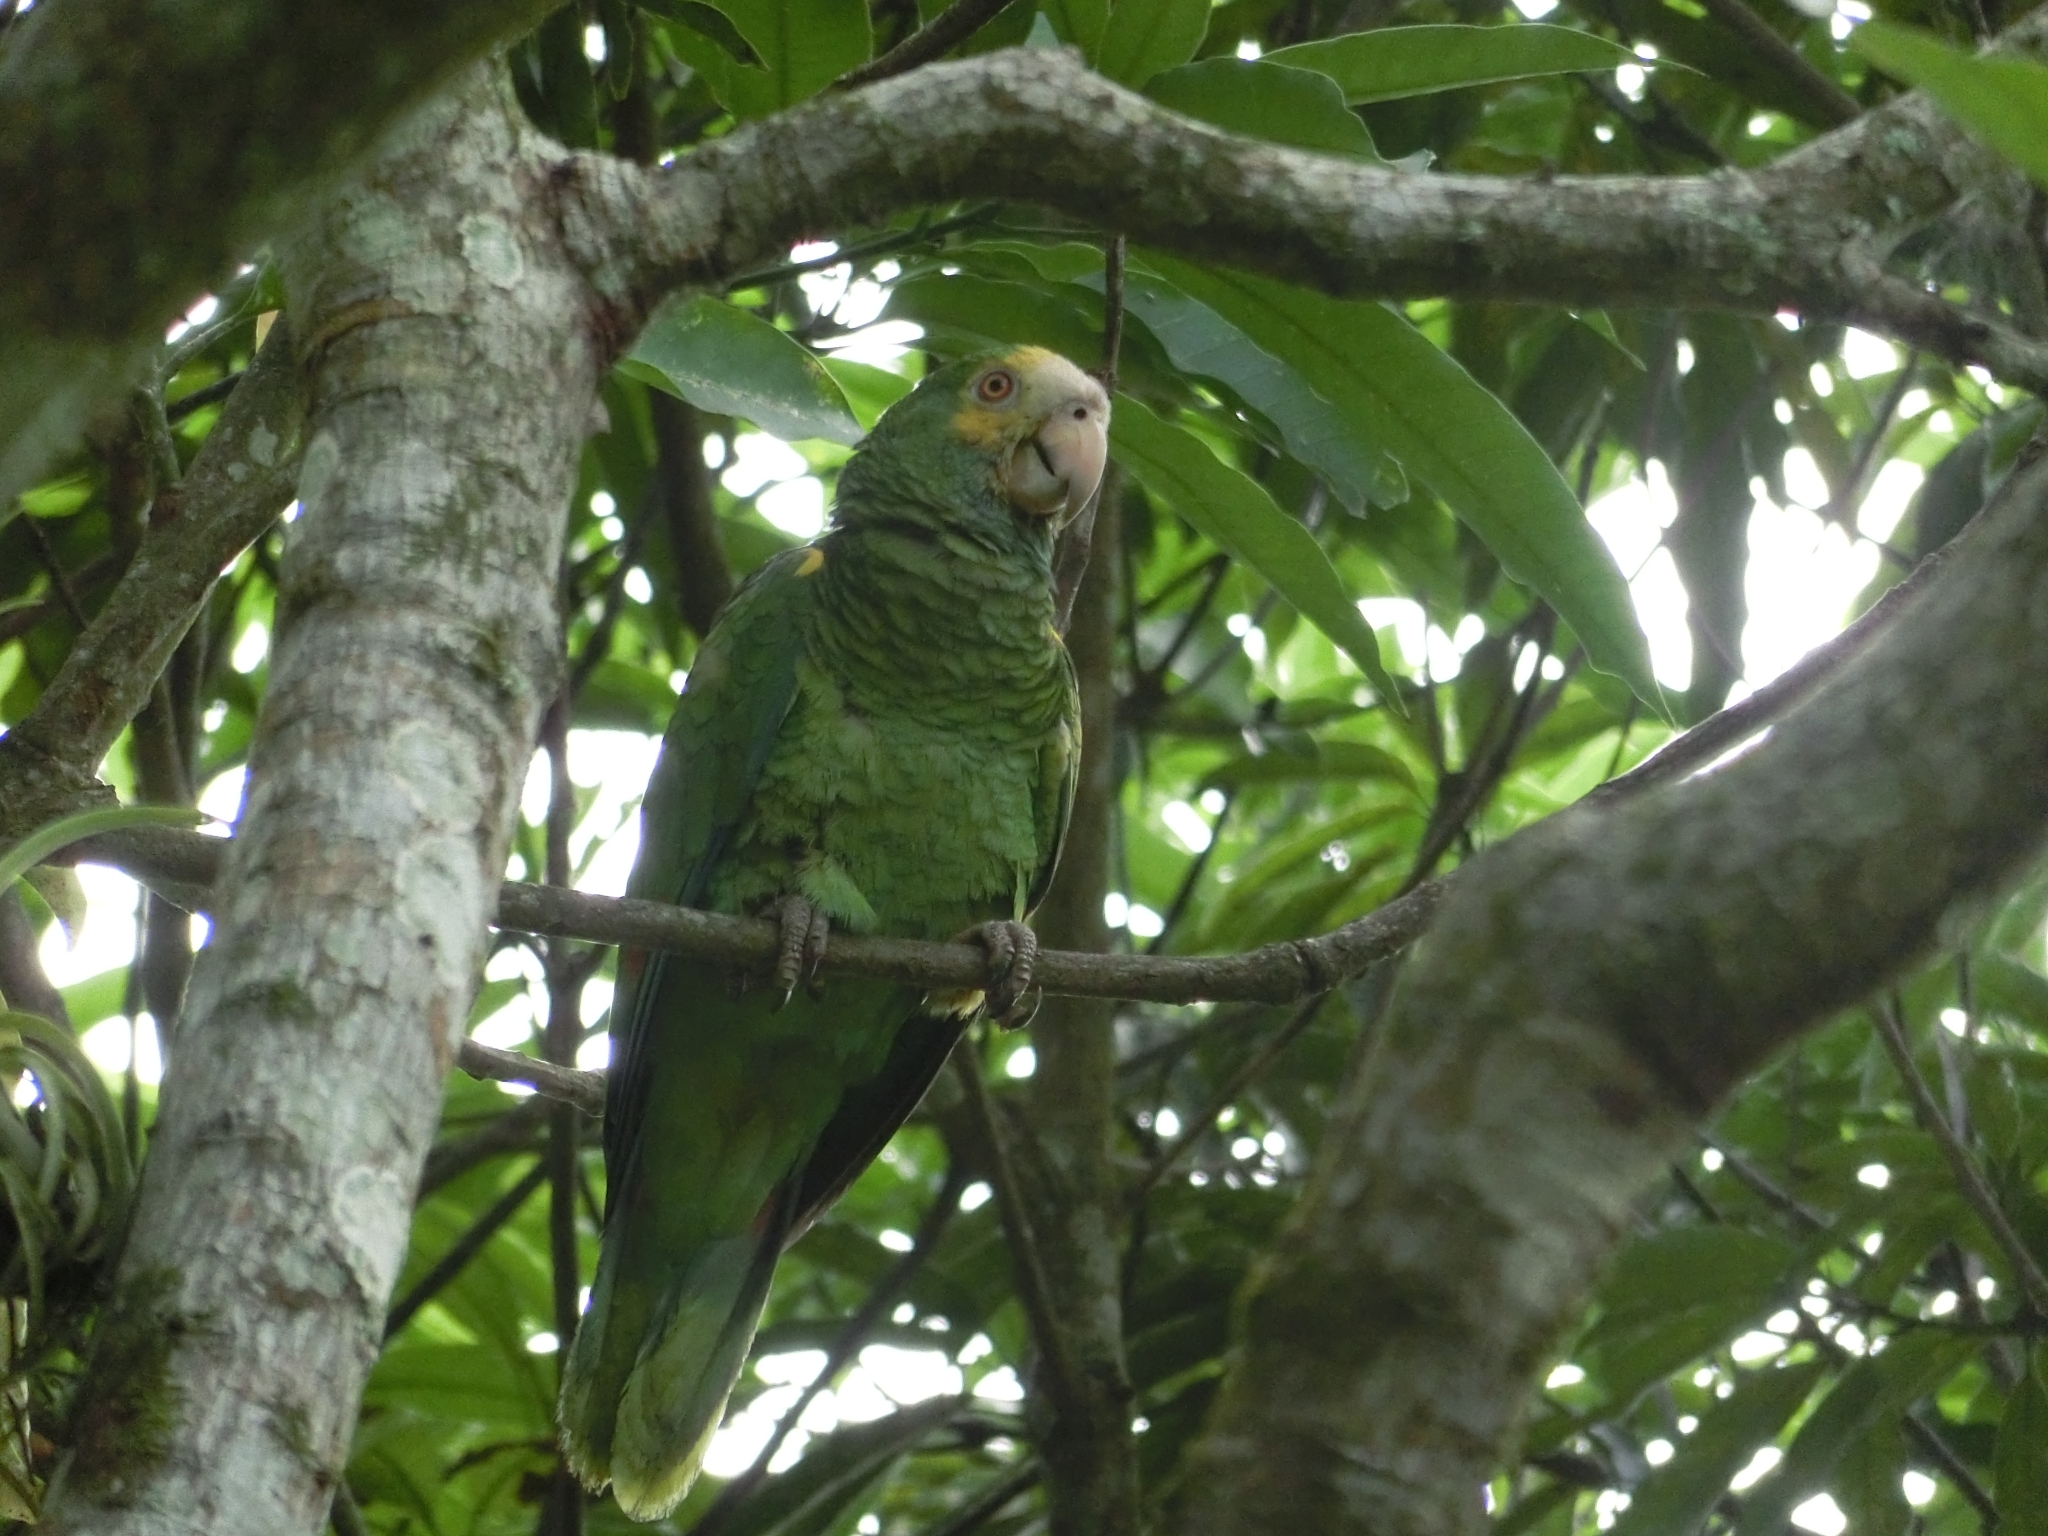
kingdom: Animalia
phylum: Chordata
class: Aves
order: Psittaciformes
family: Psittacidae
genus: Amazona
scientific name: Amazona barbadensis
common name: Yellow-shouldered amazon
